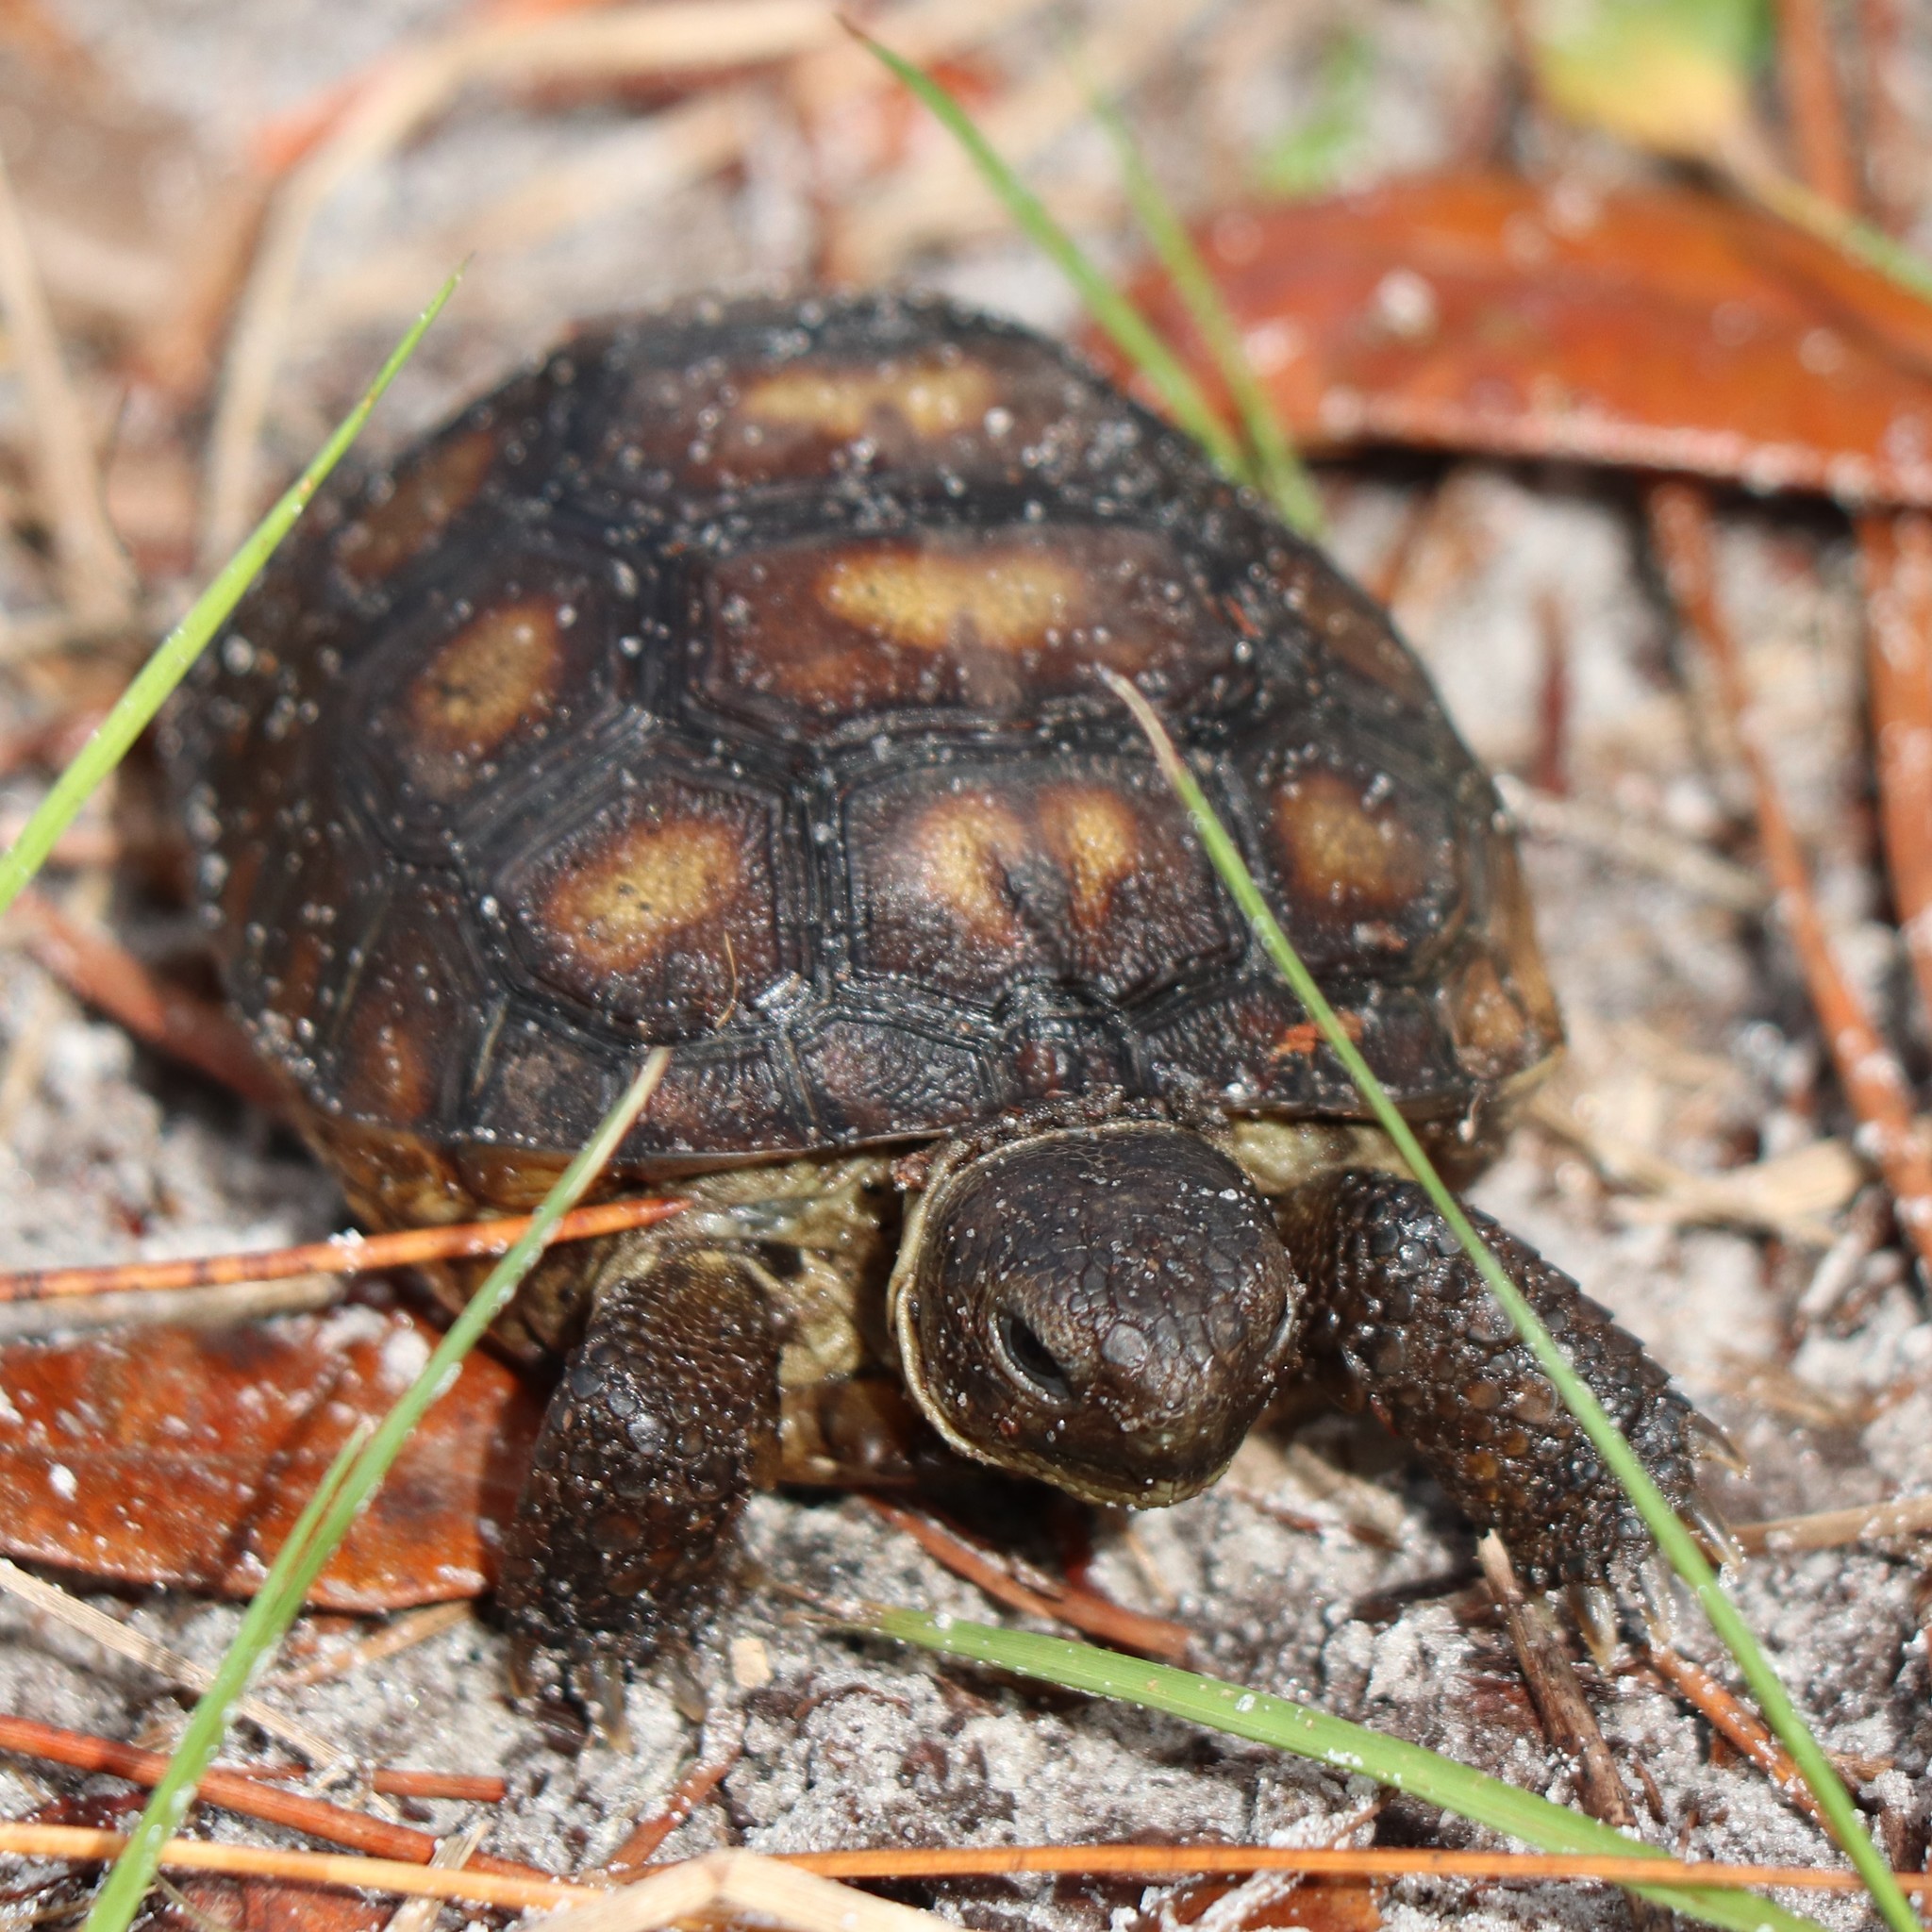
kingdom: Animalia
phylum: Chordata
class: Testudines
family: Testudinidae
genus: Gopherus
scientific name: Gopherus polyphemus
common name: Florida gopher tortoise
